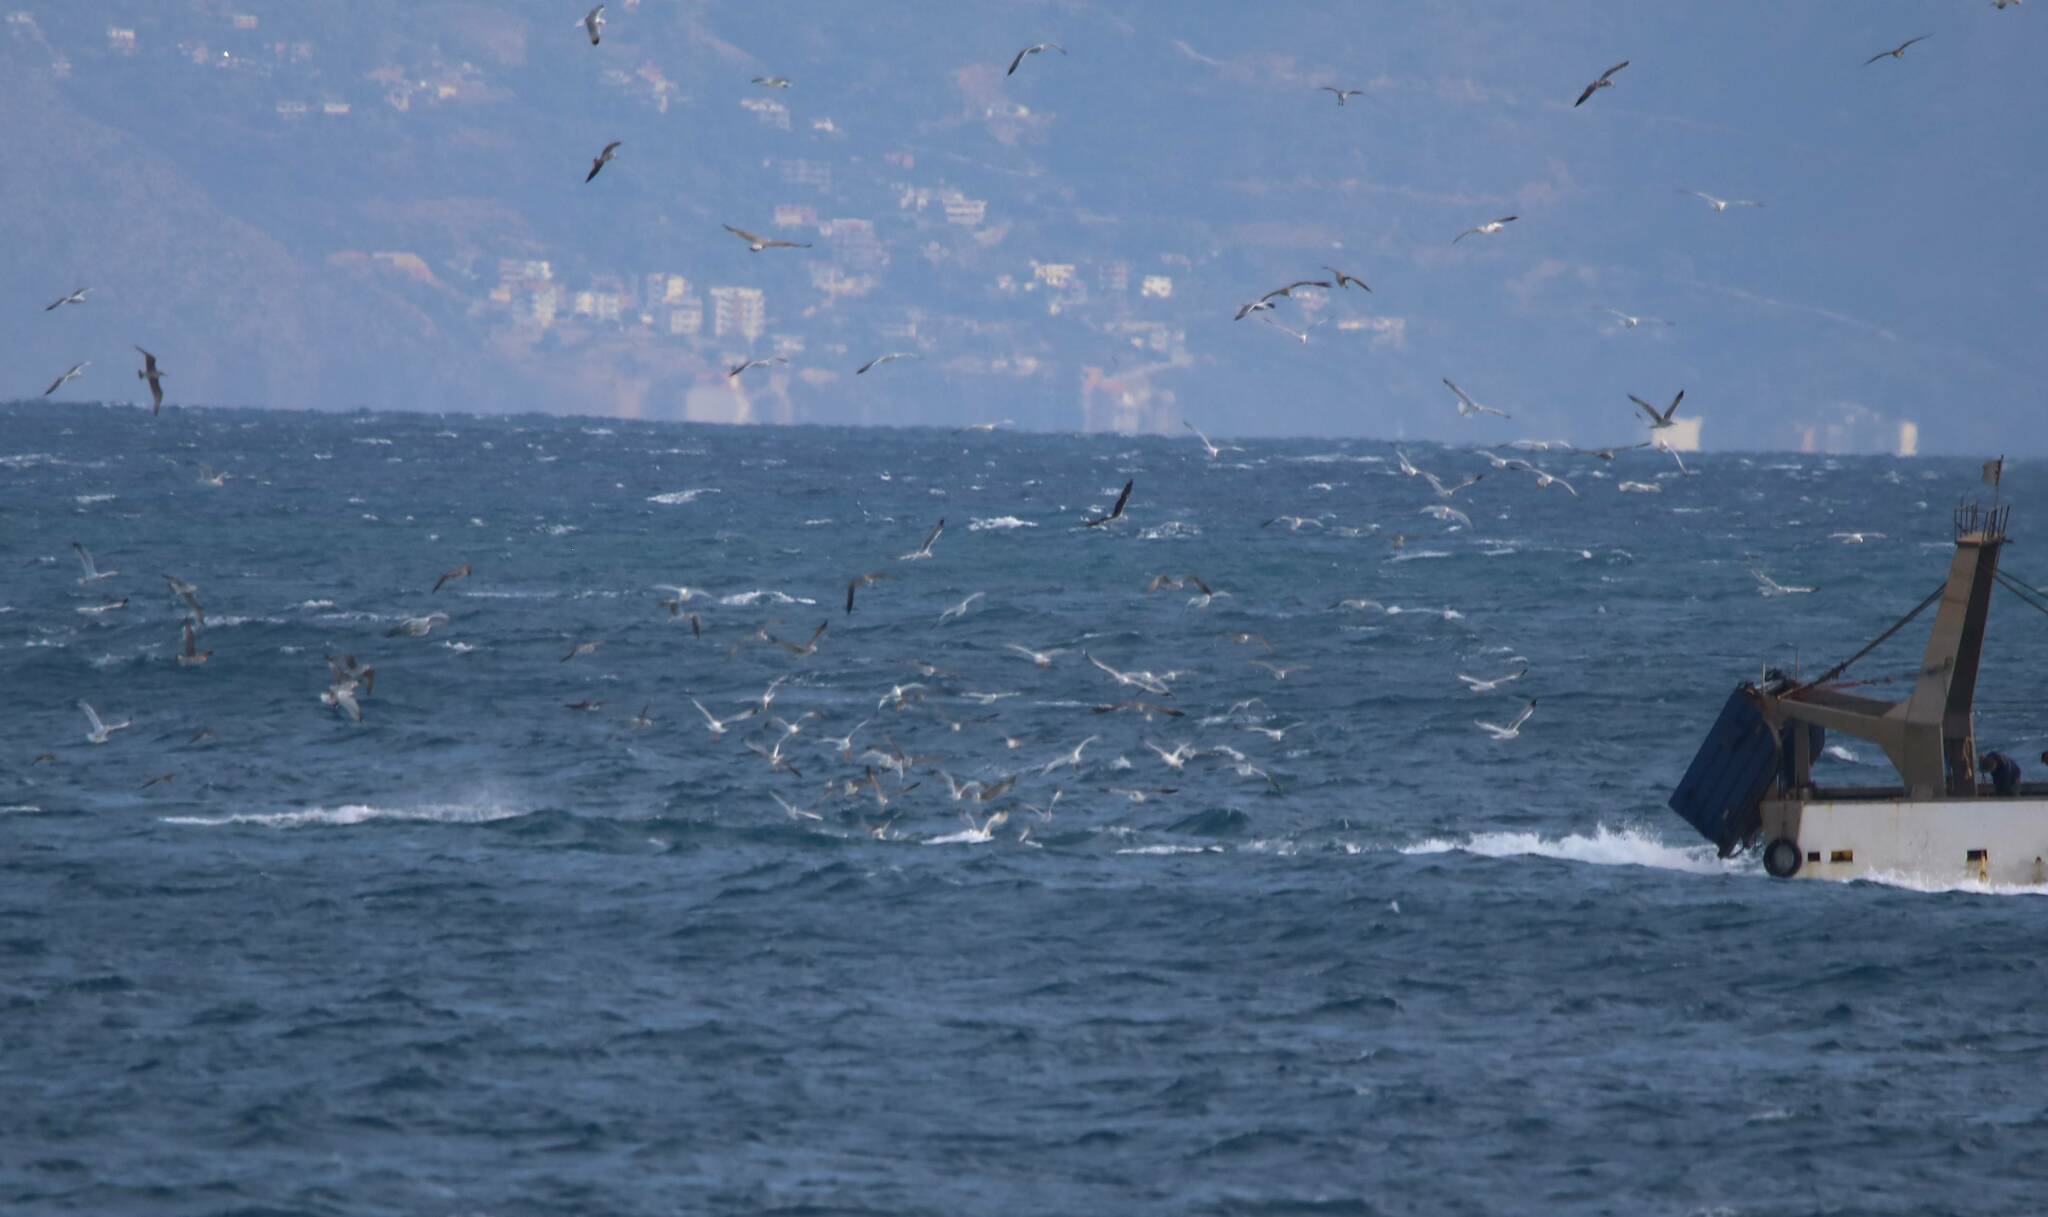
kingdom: Animalia
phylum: Chordata
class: Aves
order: Procellariiformes
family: Procellariidae
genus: Calonectris
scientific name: Calonectris diomedea
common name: Cory's shearwater
